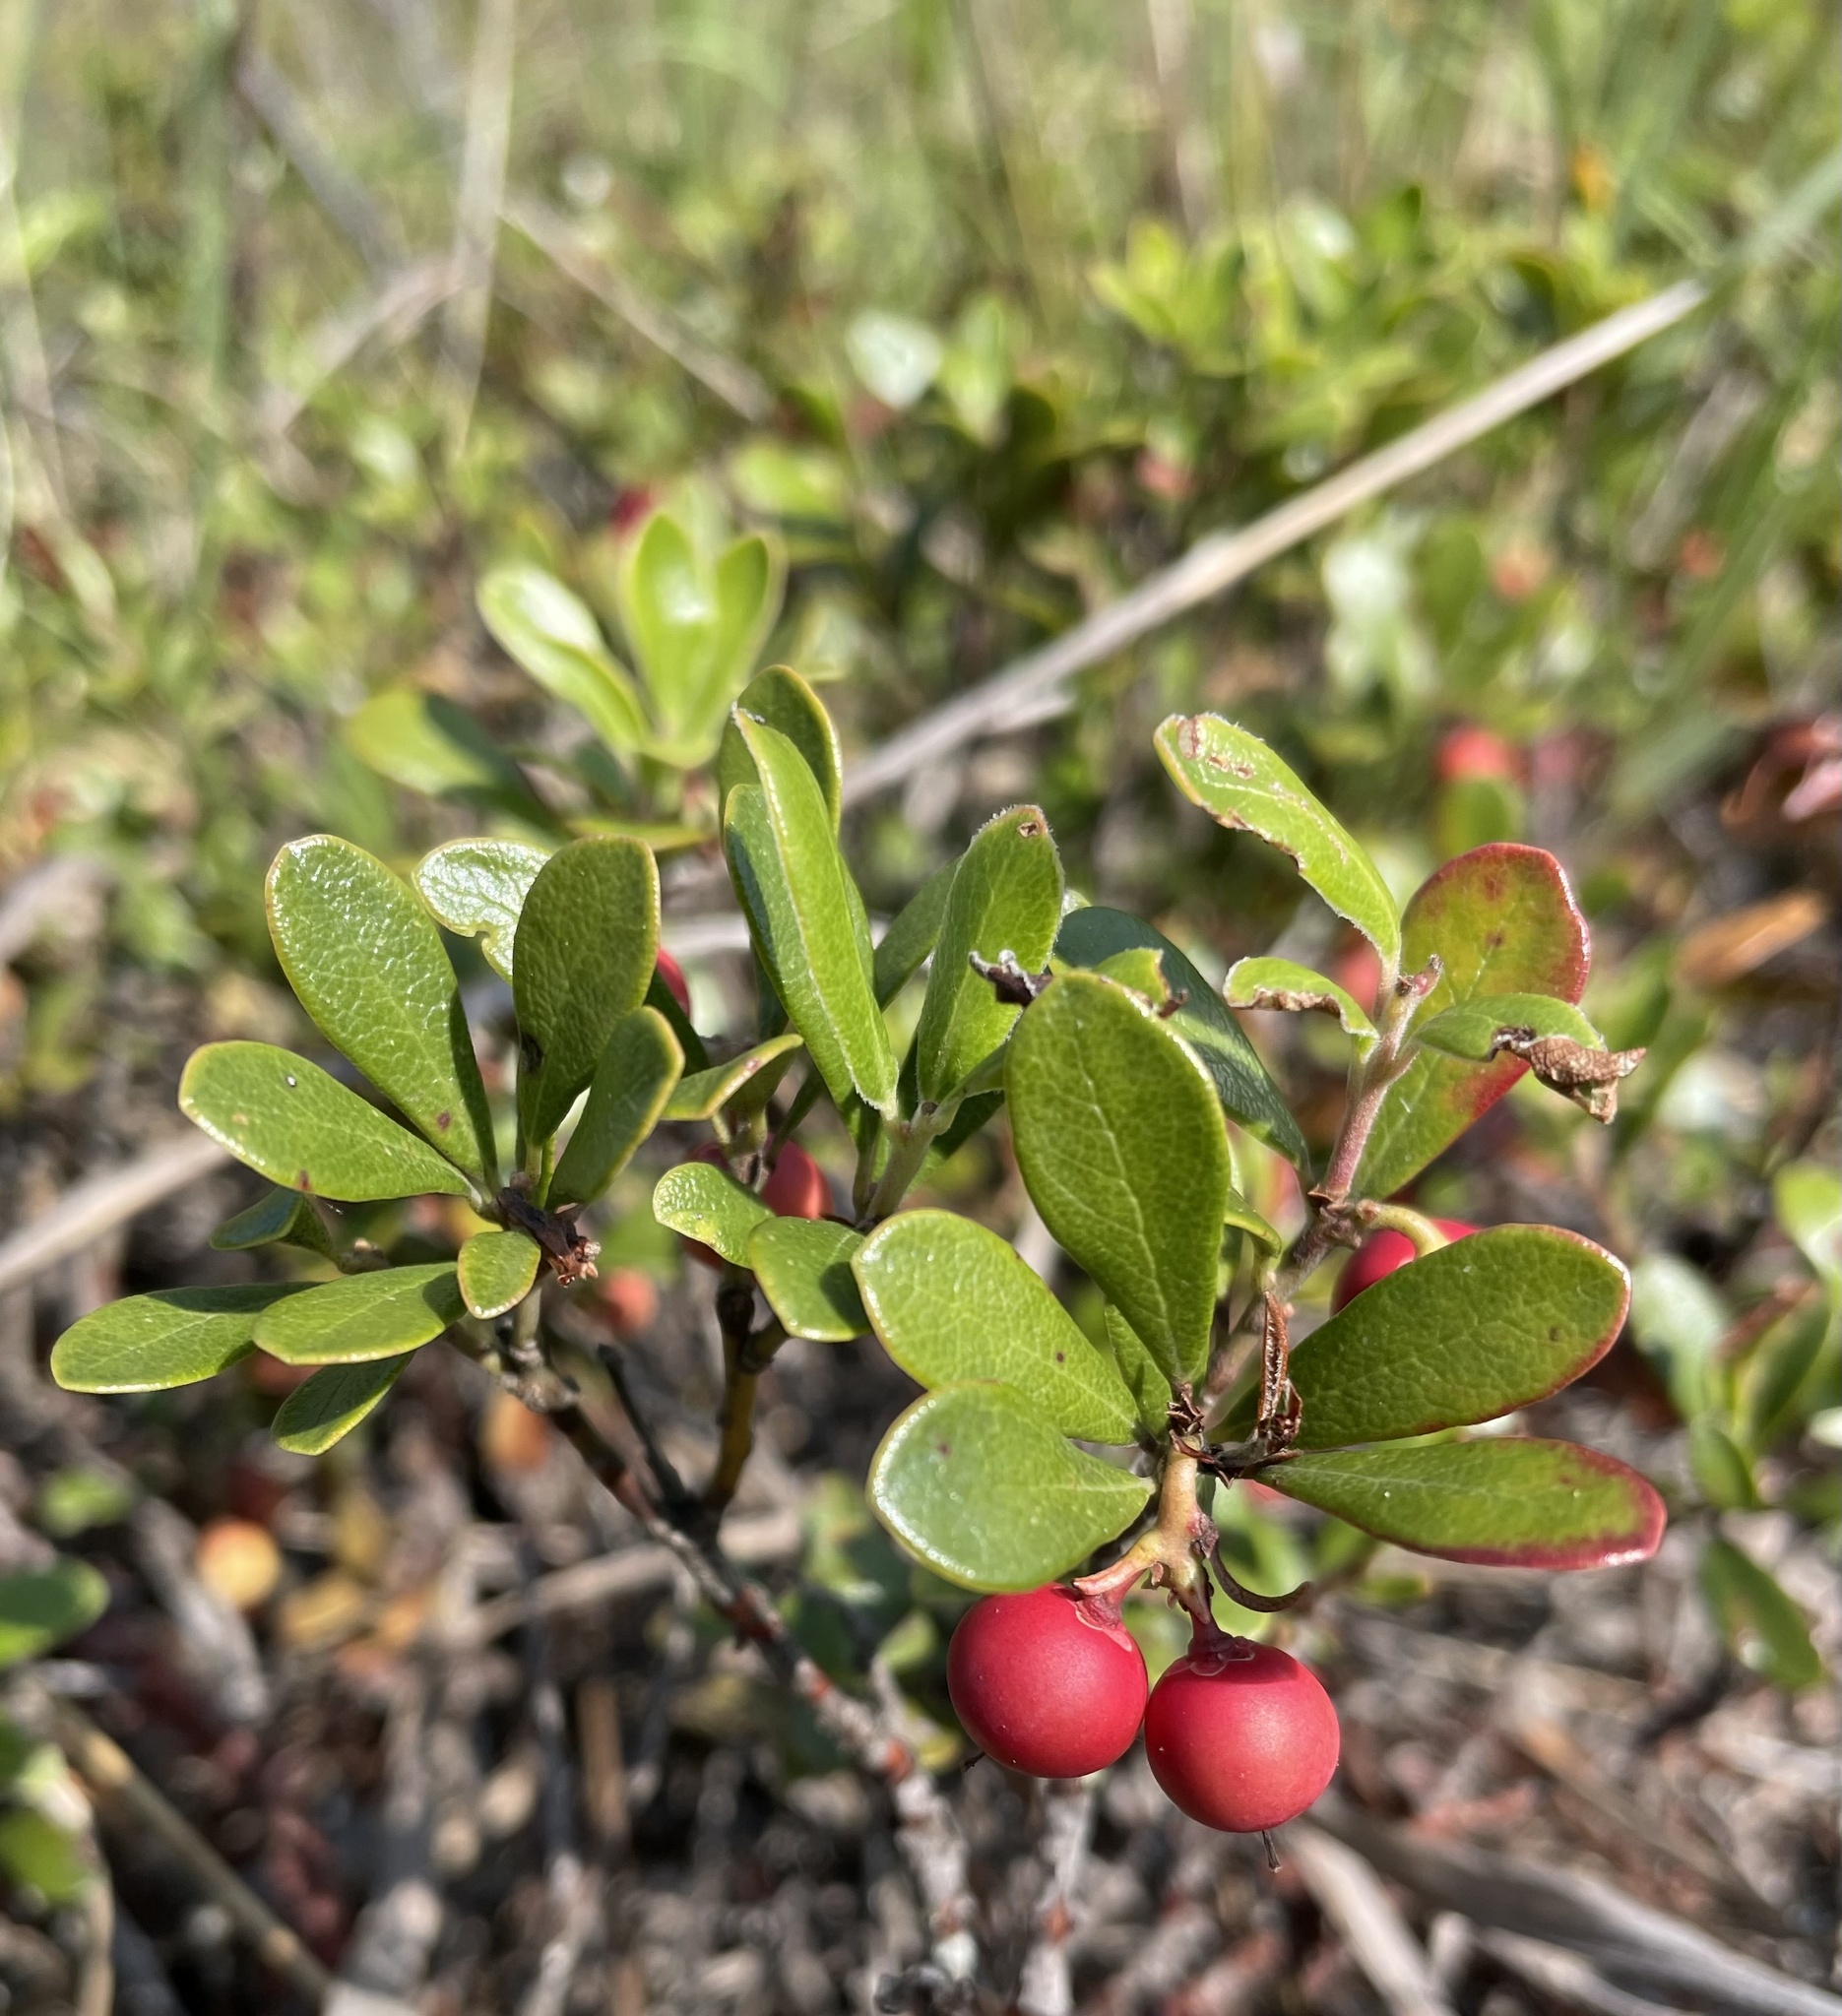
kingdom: Plantae
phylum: Tracheophyta
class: Magnoliopsida
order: Ericales
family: Ericaceae
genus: Arctostaphylos
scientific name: Arctostaphylos uva-ursi
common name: Bearberry
